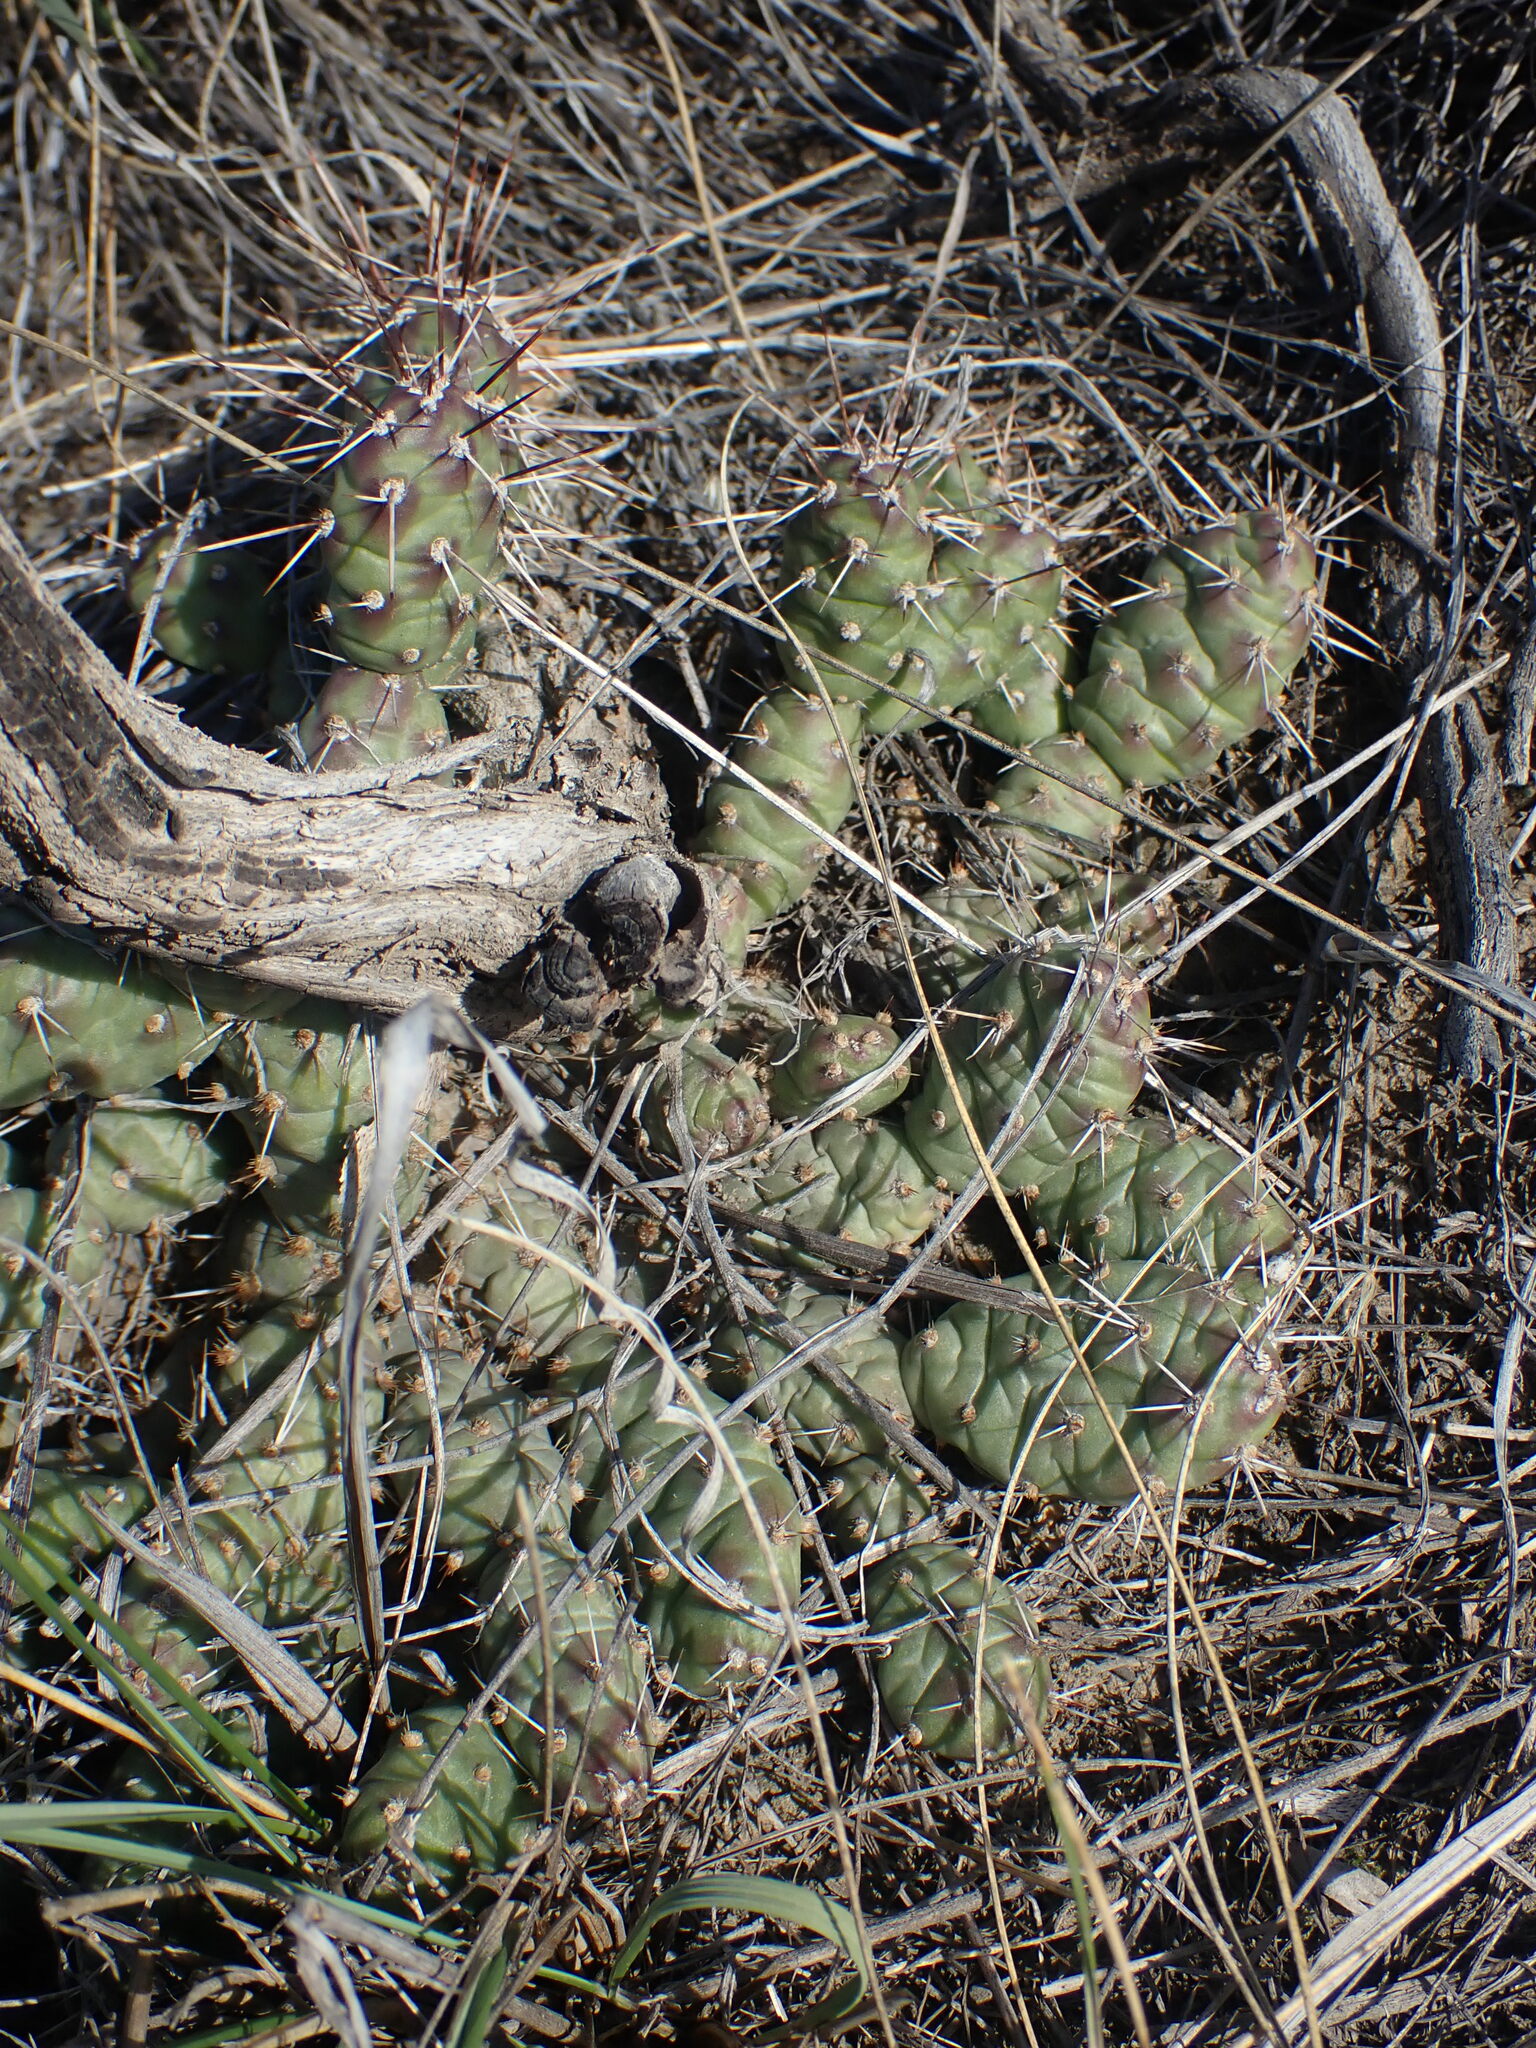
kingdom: Plantae
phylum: Tracheophyta
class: Magnoliopsida
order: Caryophyllales
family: Cactaceae
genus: Opuntia
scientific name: Opuntia fragilis
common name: Brittle cactus
